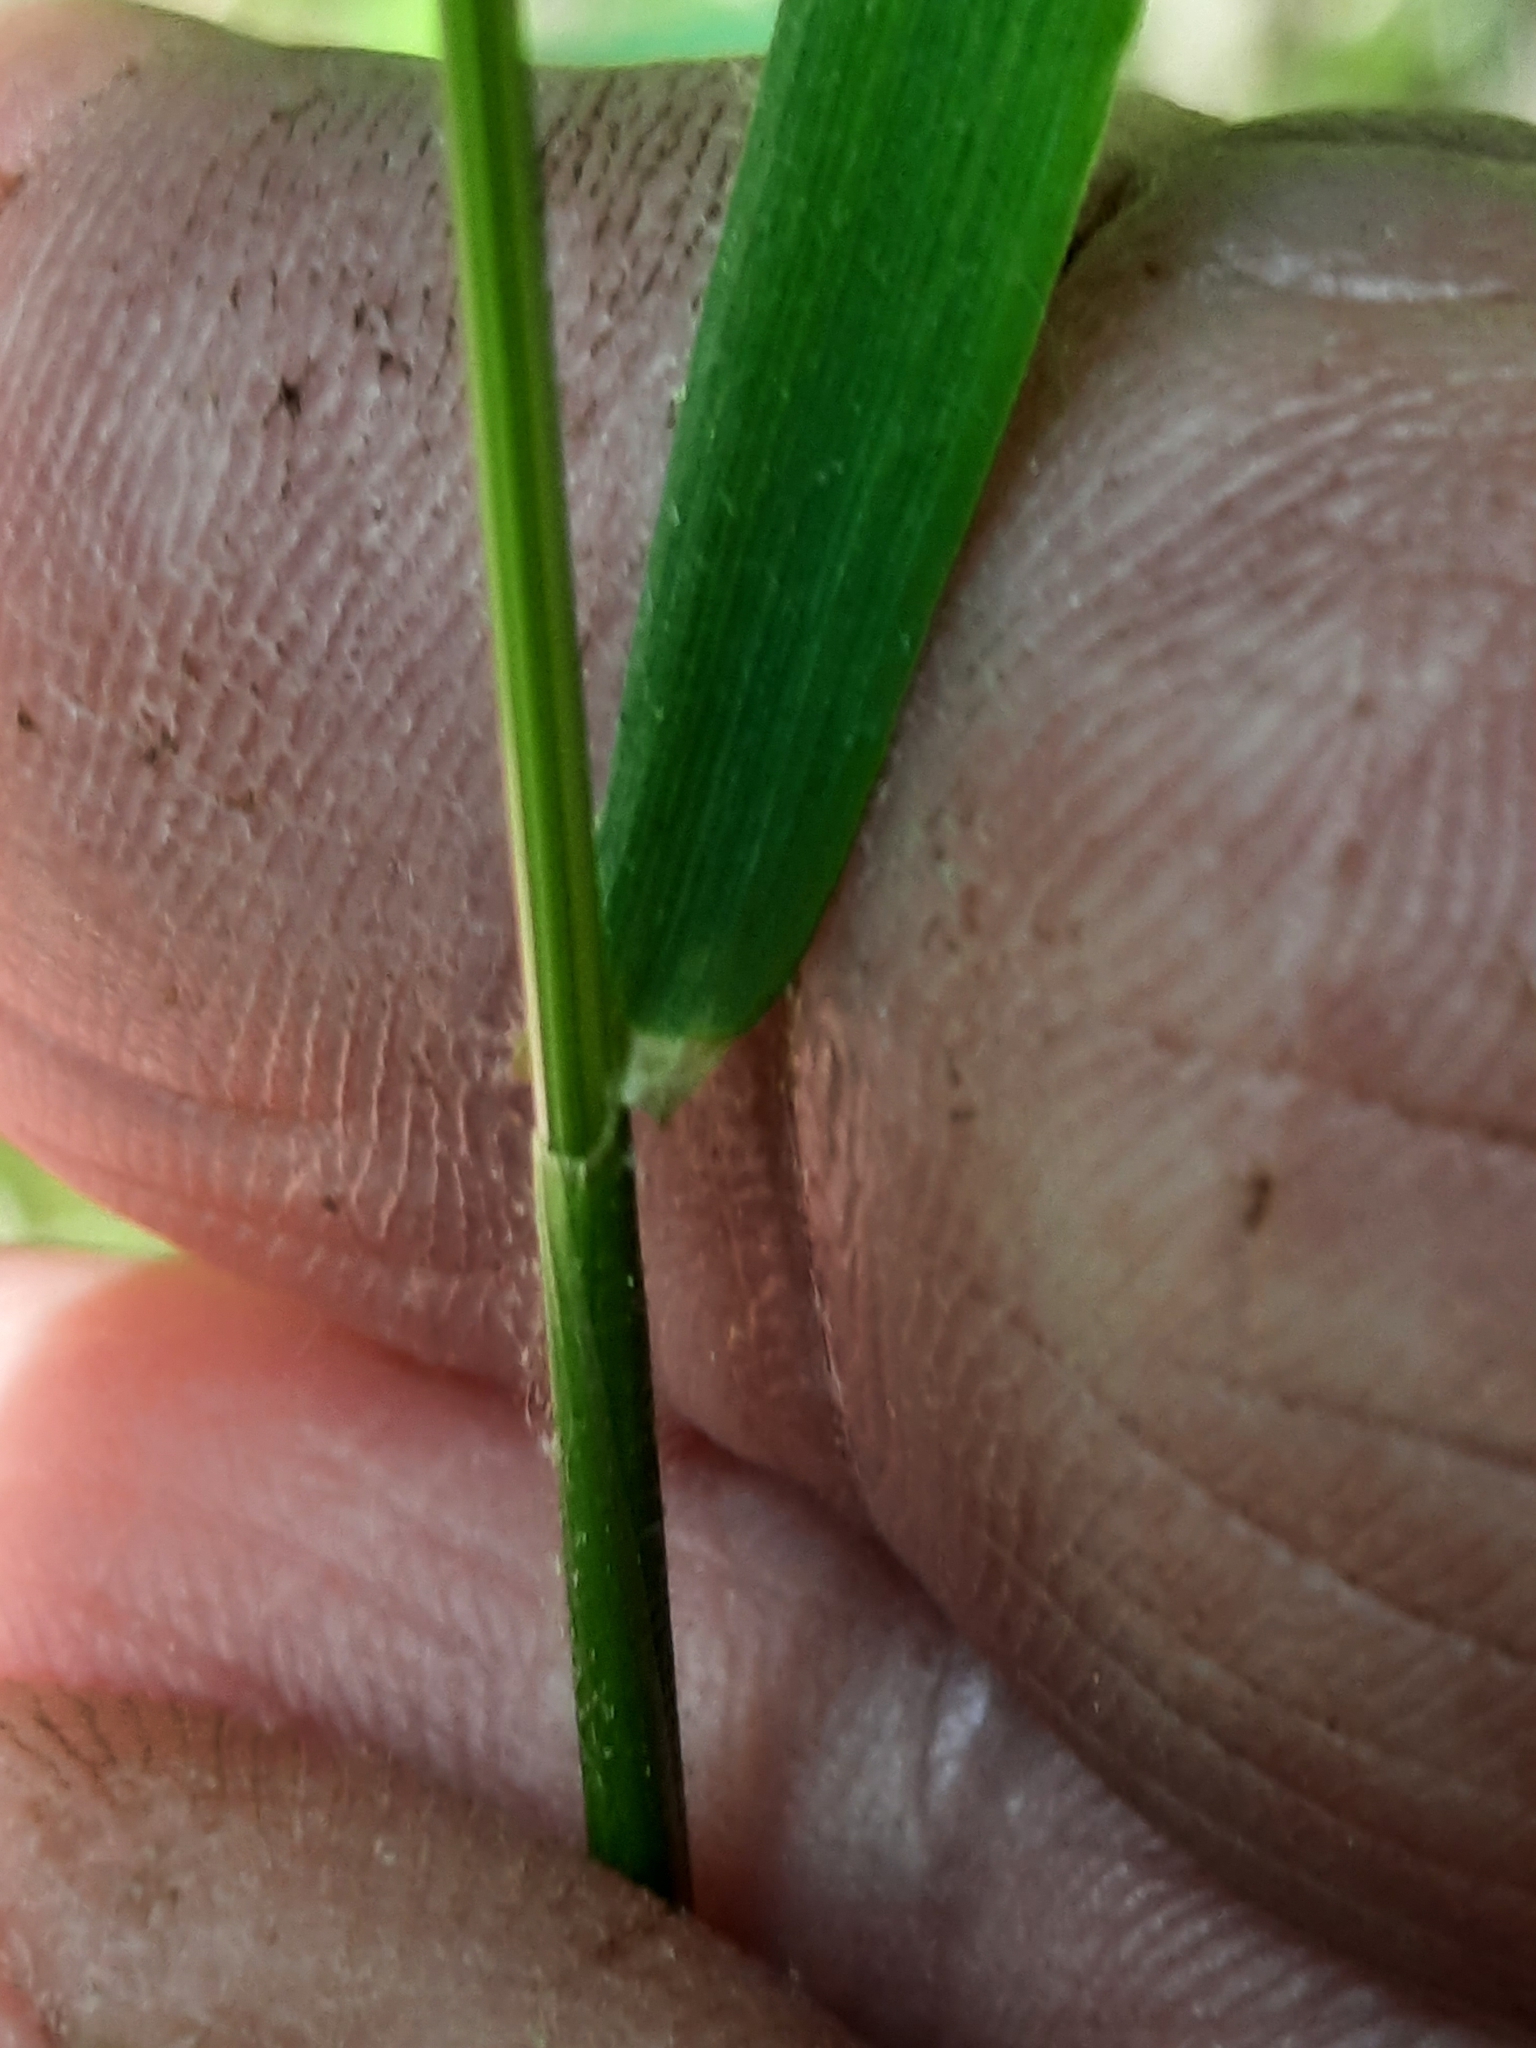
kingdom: Plantae
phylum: Tracheophyta
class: Liliopsida
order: Poales
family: Poaceae
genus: Anthoxanthum
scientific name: Anthoxanthum odoratum
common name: Sweet vernalgrass
